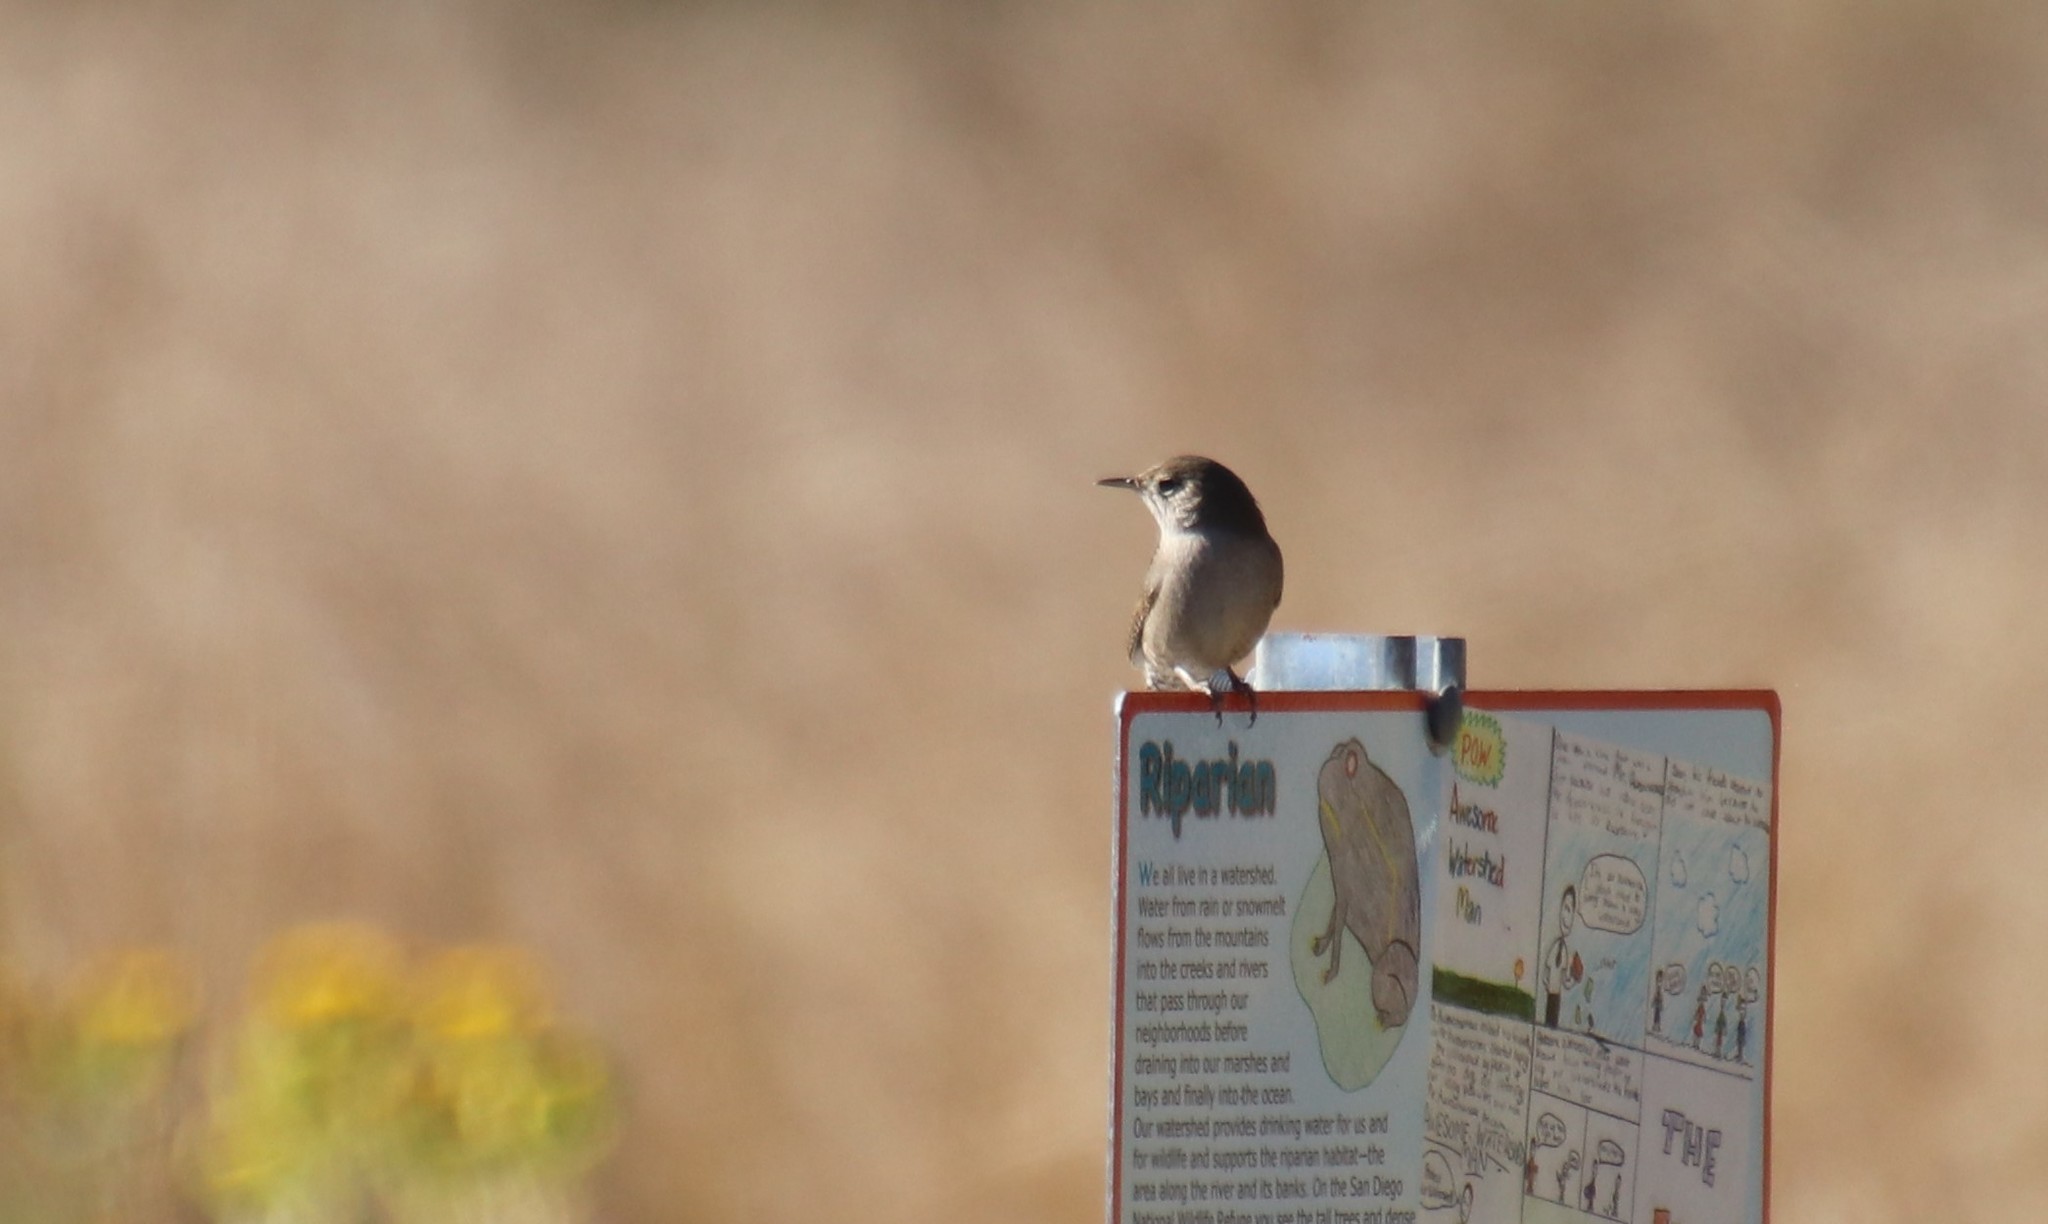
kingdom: Animalia
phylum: Chordata
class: Aves
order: Passeriformes
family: Troglodytidae
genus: Troglodytes
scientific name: Troglodytes aedon
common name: House wren
